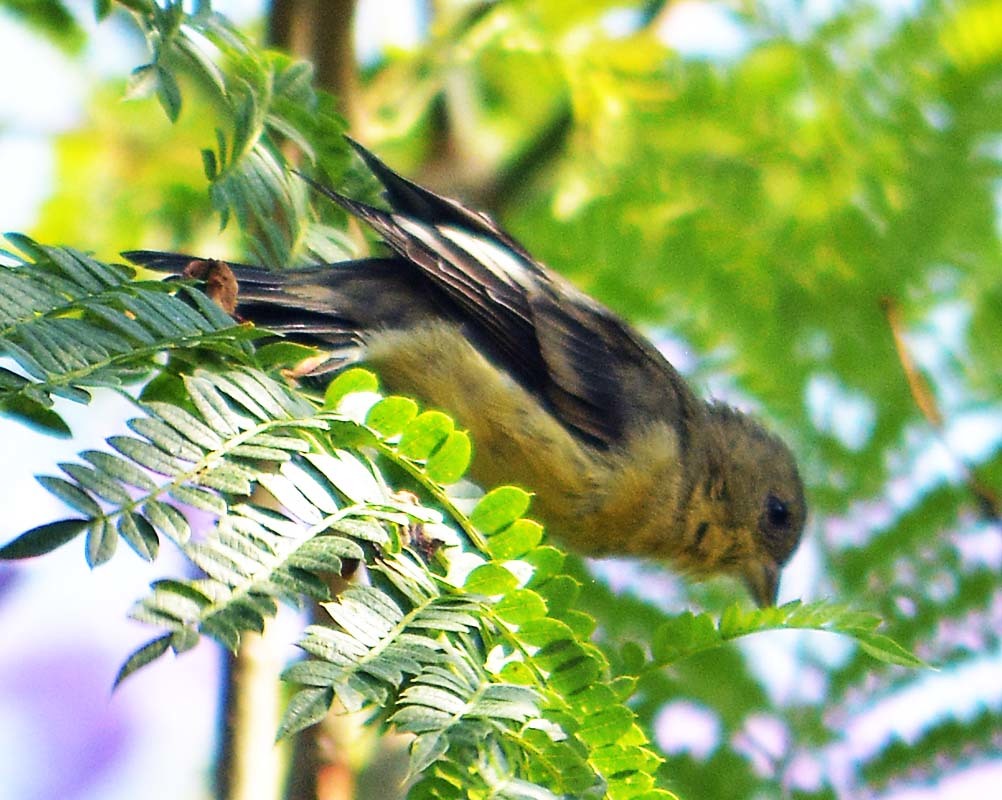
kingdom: Animalia
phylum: Chordata
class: Aves
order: Passeriformes
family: Fringillidae
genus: Spinus
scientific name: Spinus psaltria
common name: Lesser goldfinch
